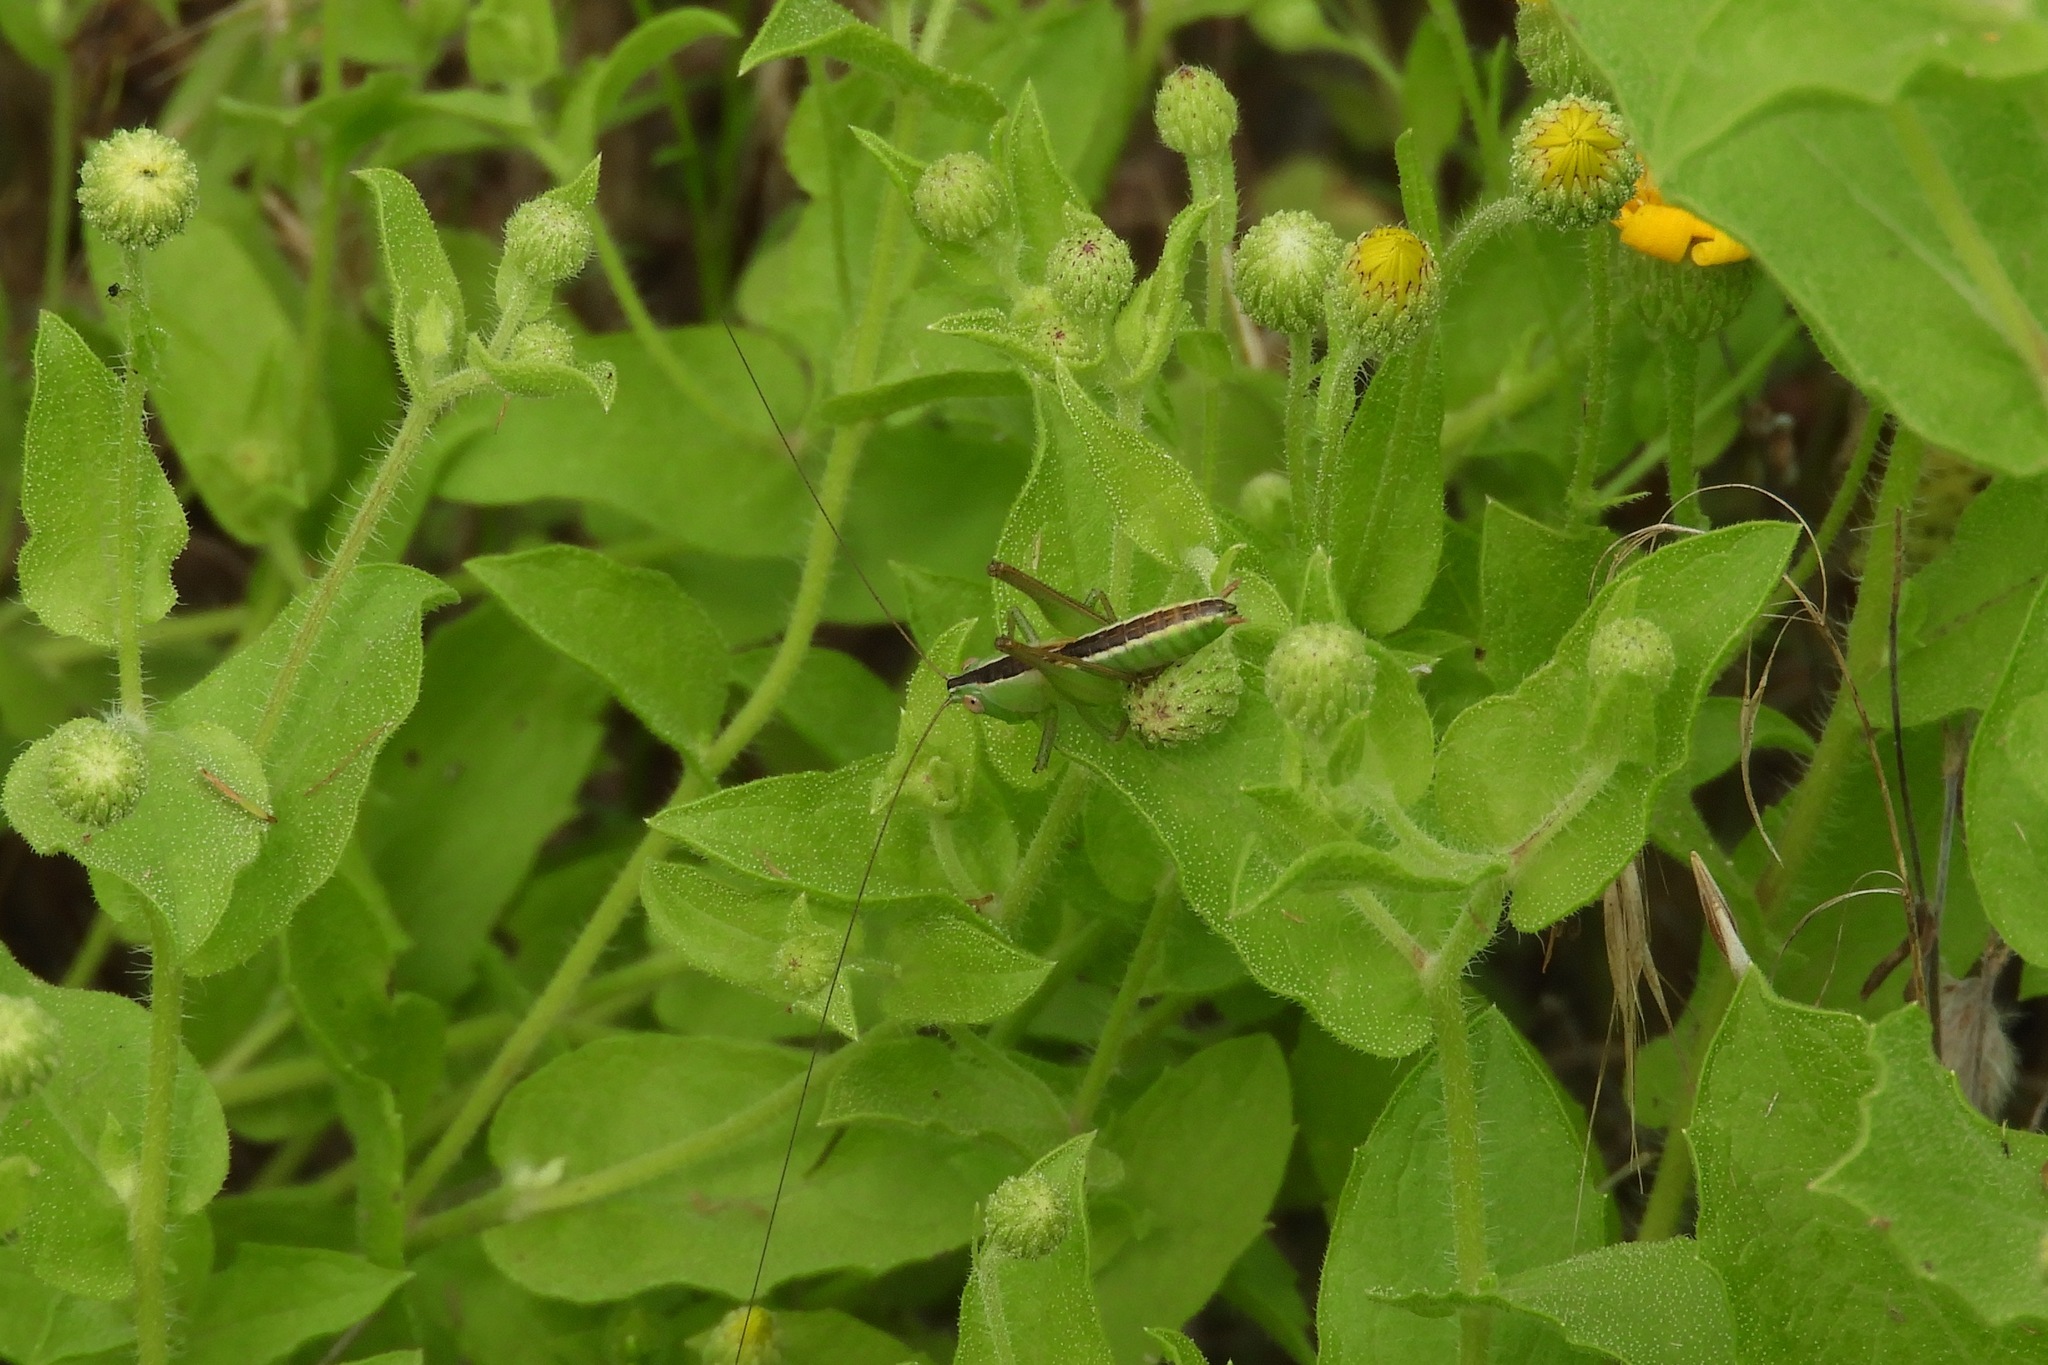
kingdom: Animalia
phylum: Arthropoda
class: Insecta
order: Orthoptera
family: Tettigoniidae
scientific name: Tettigoniidae
